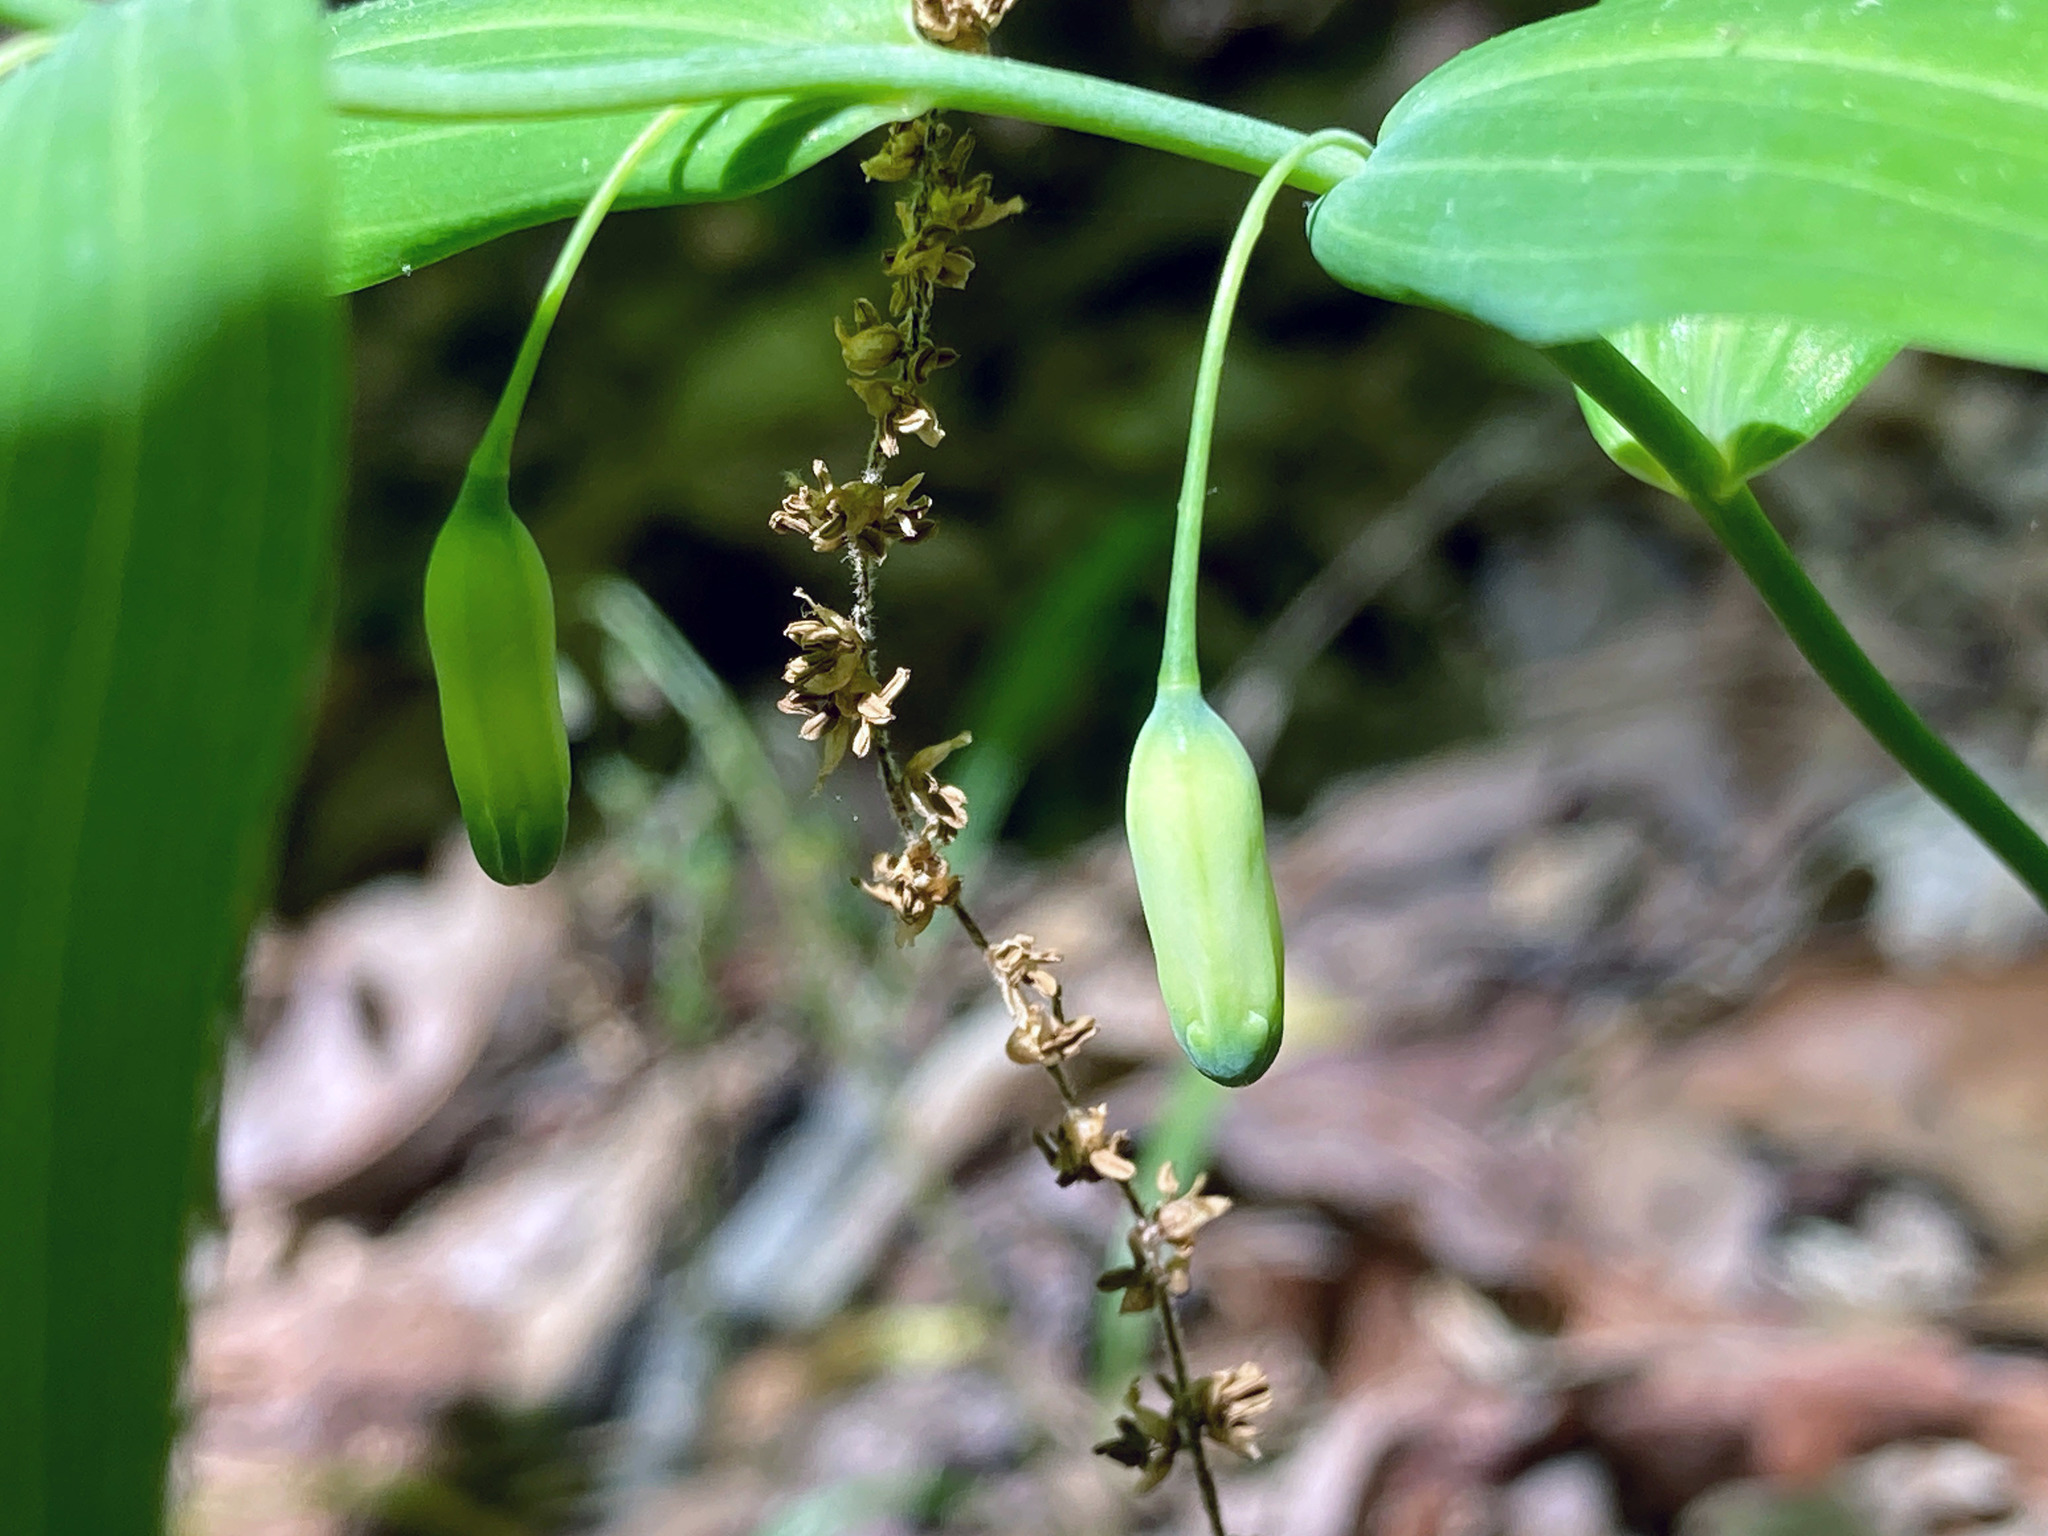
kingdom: Plantae
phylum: Tracheophyta
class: Liliopsida
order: Asparagales
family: Asparagaceae
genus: Polygonatum
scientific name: Polygonatum biflorum
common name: American solomon's-seal
